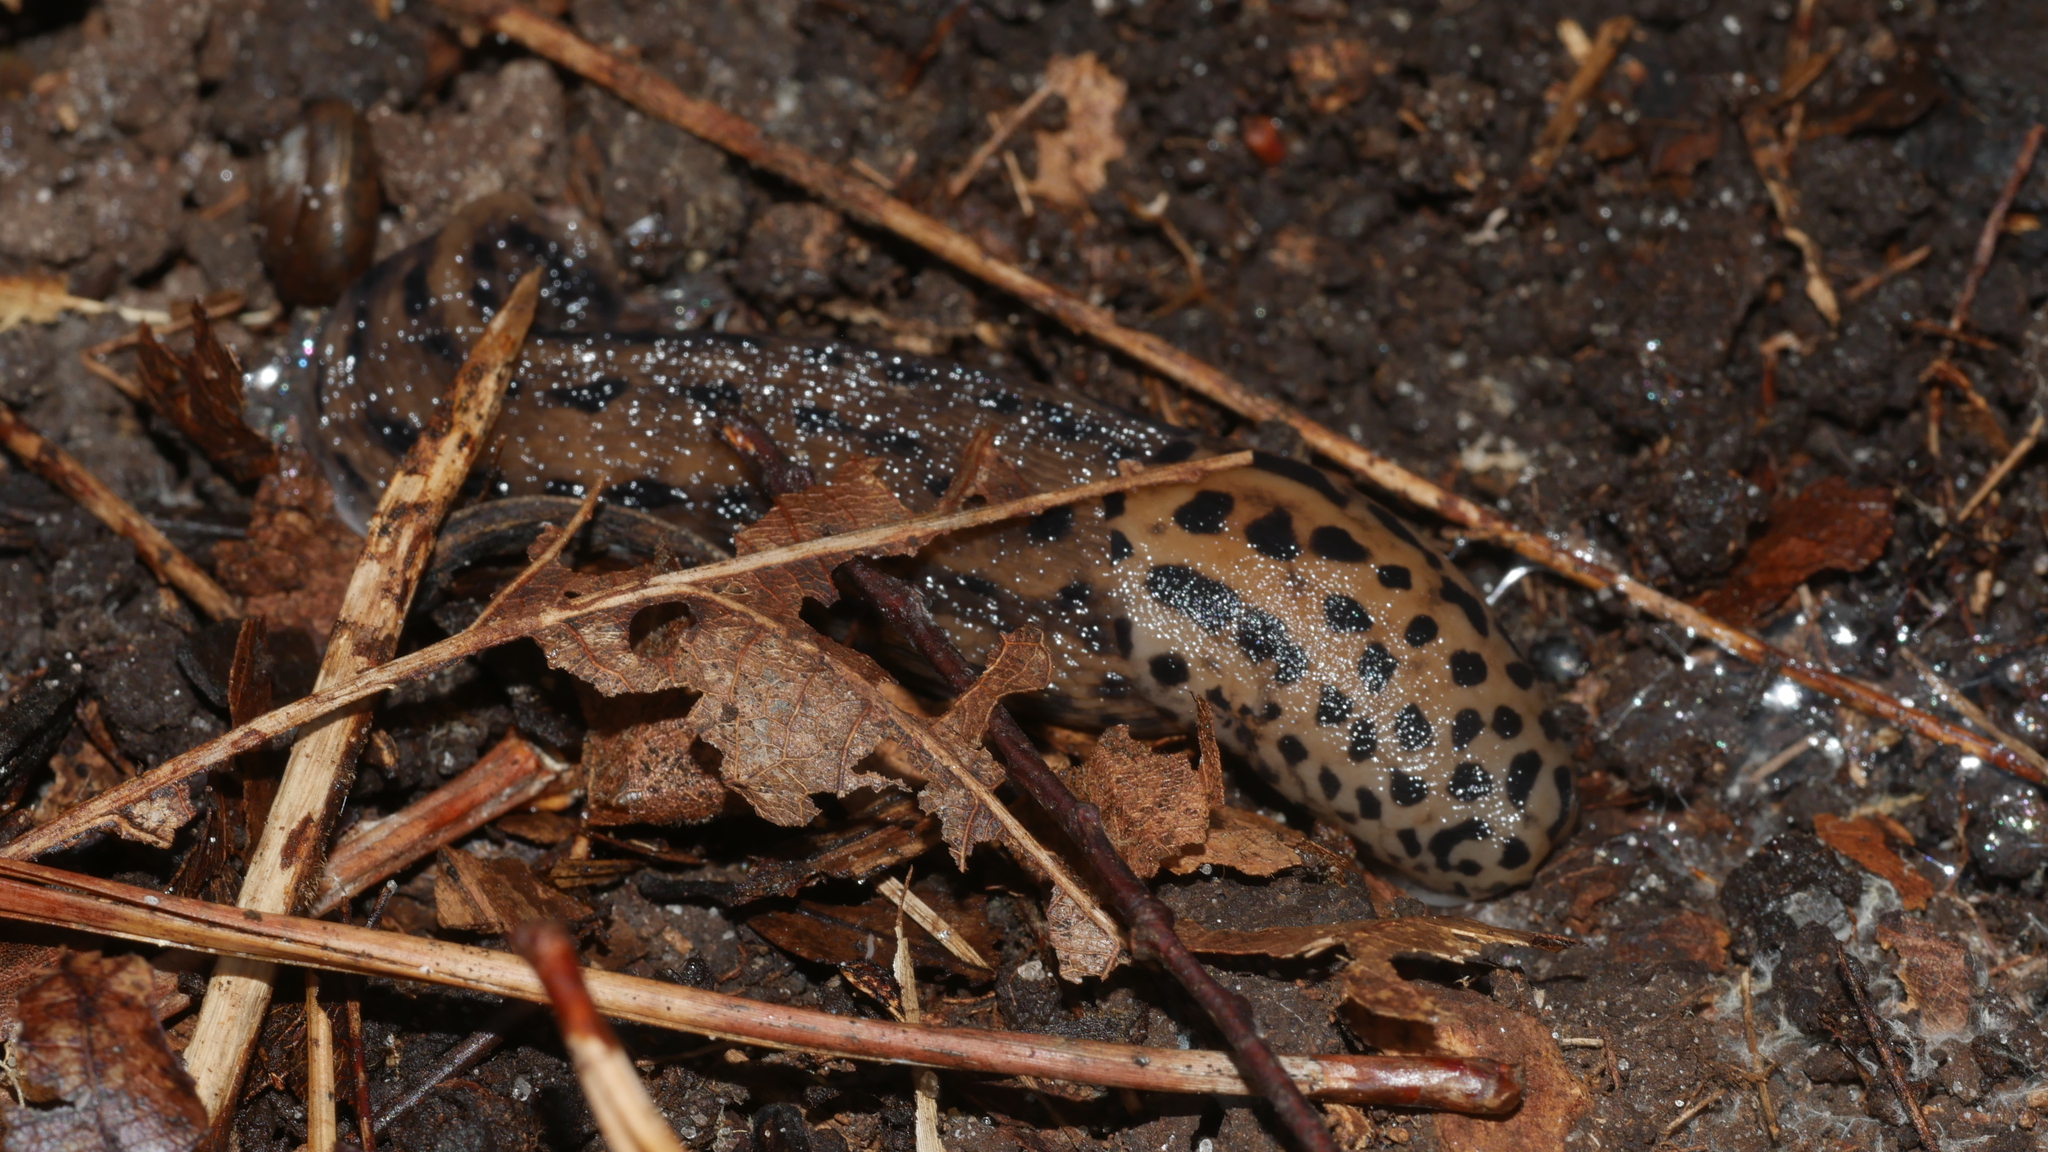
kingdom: Animalia
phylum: Mollusca
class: Gastropoda
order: Stylommatophora
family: Limacidae
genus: Limax
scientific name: Limax maximus
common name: Great grey slug
